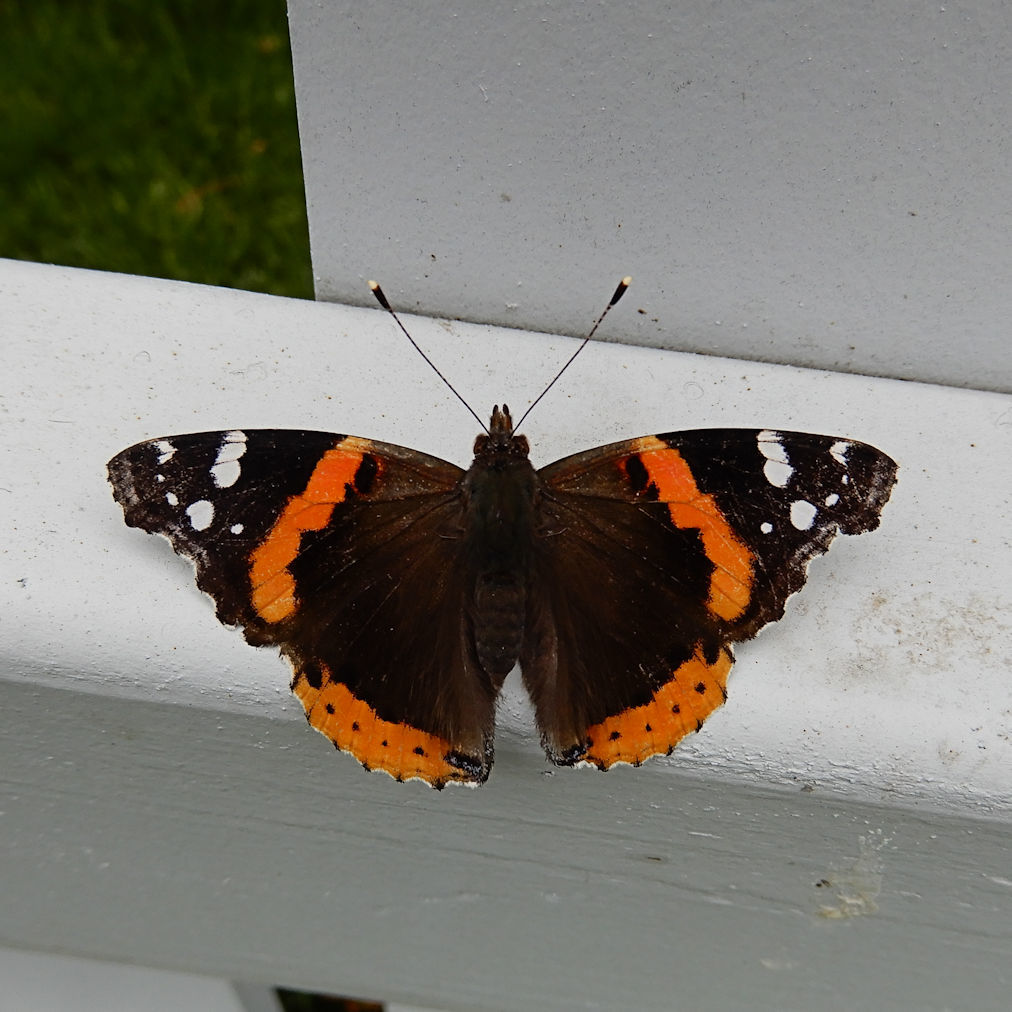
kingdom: Animalia
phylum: Arthropoda
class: Insecta
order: Lepidoptera
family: Nymphalidae
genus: Vanessa
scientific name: Vanessa atalanta
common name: Red admiral
